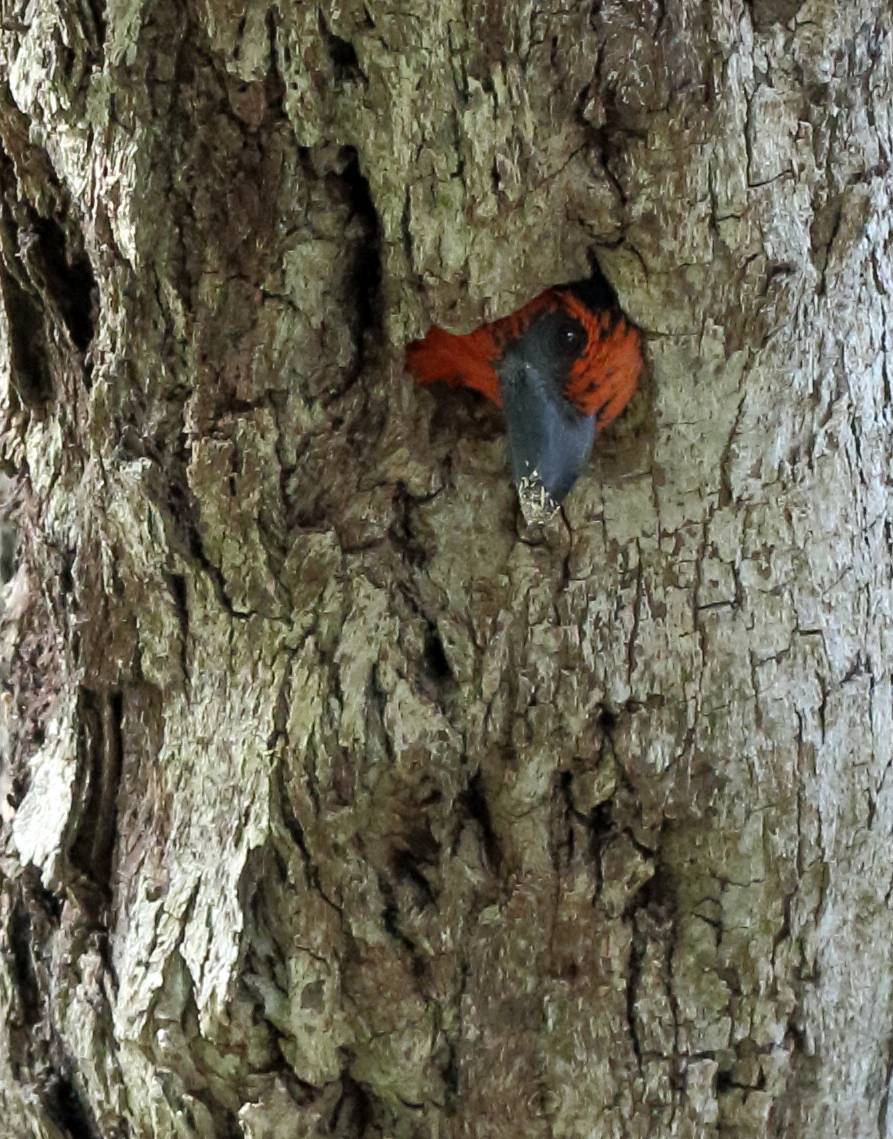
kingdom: Animalia
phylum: Chordata
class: Aves
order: Piciformes
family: Lybiidae
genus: Lybius
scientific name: Lybius torquatus
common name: Black-collared barbet
